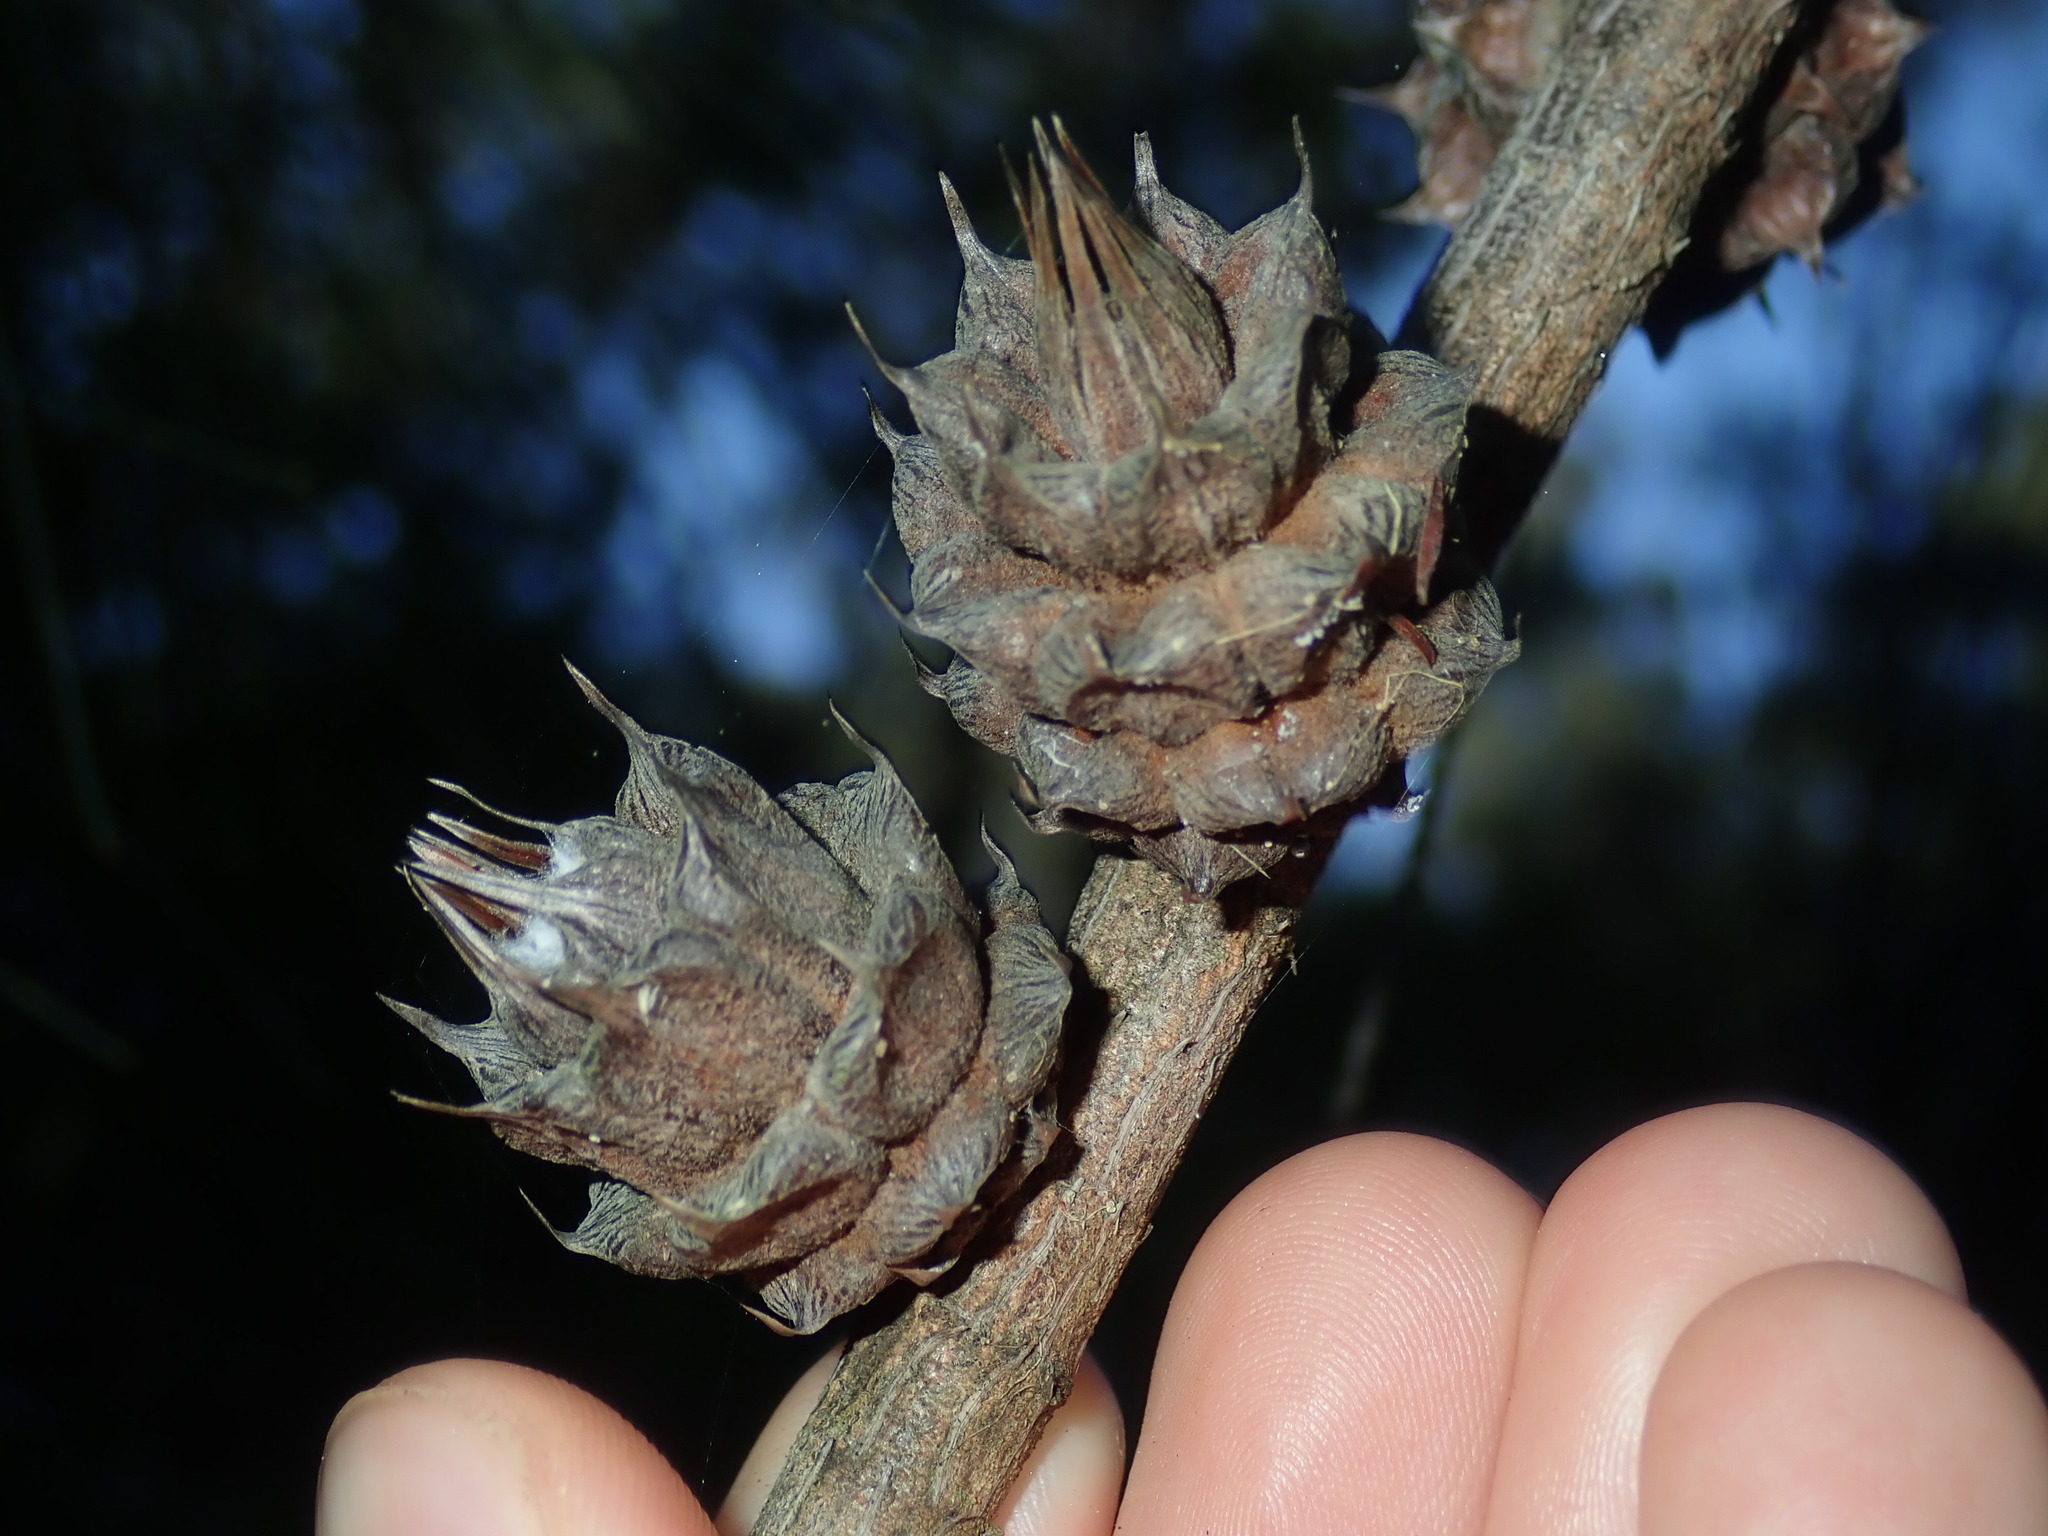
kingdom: Animalia
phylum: Arthropoda
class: Insecta
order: Hemiptera
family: Eriococcidae
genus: Cylindrococcus
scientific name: Cylindrococcus spiniferus
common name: Casuarina gall
